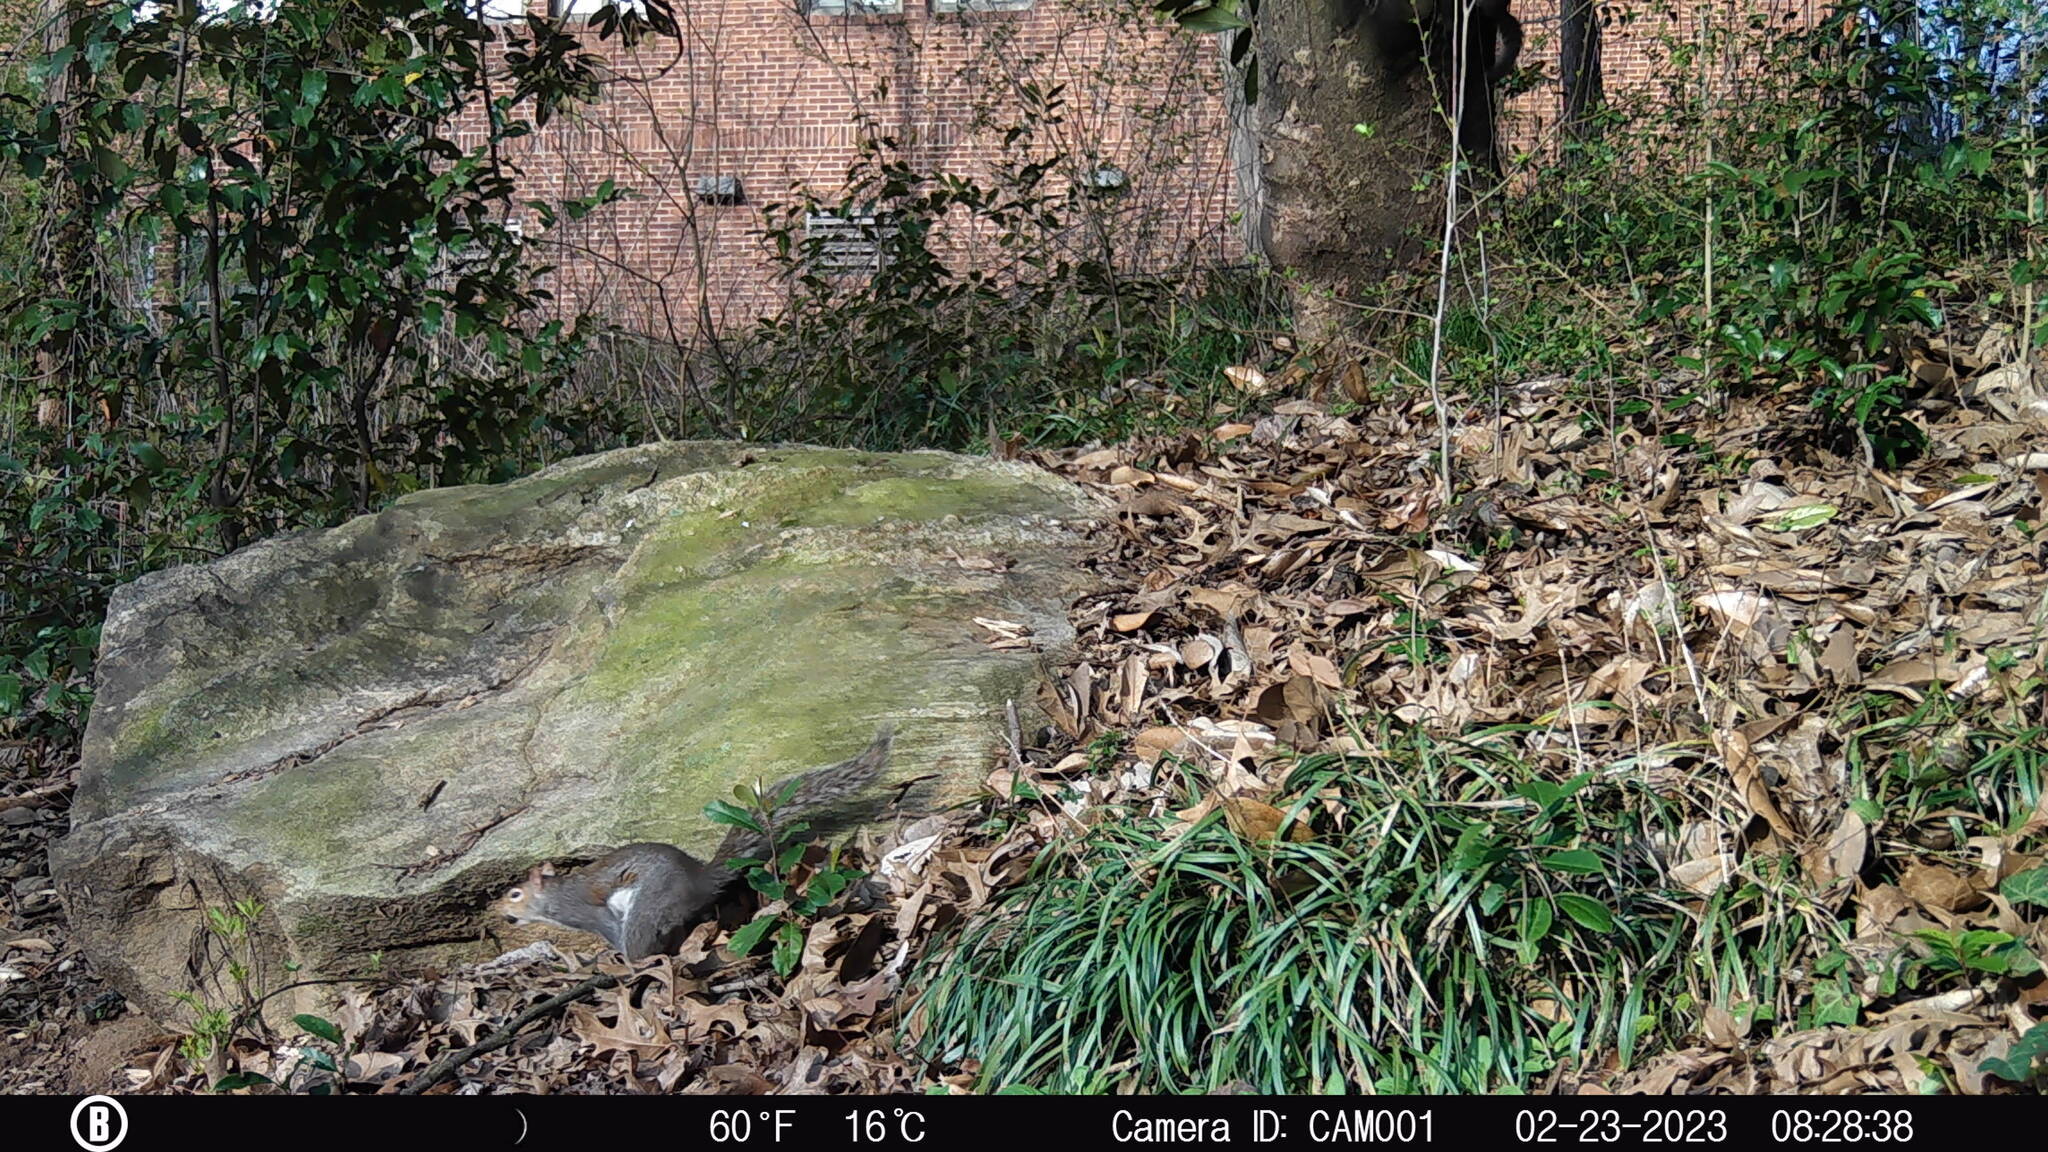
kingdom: Animalia
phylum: Chordata
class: Mammalia
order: Rodentia
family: Sciuridae
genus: Sciurus
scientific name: Sciurus carolinensis
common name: Eastern gray squirrel
